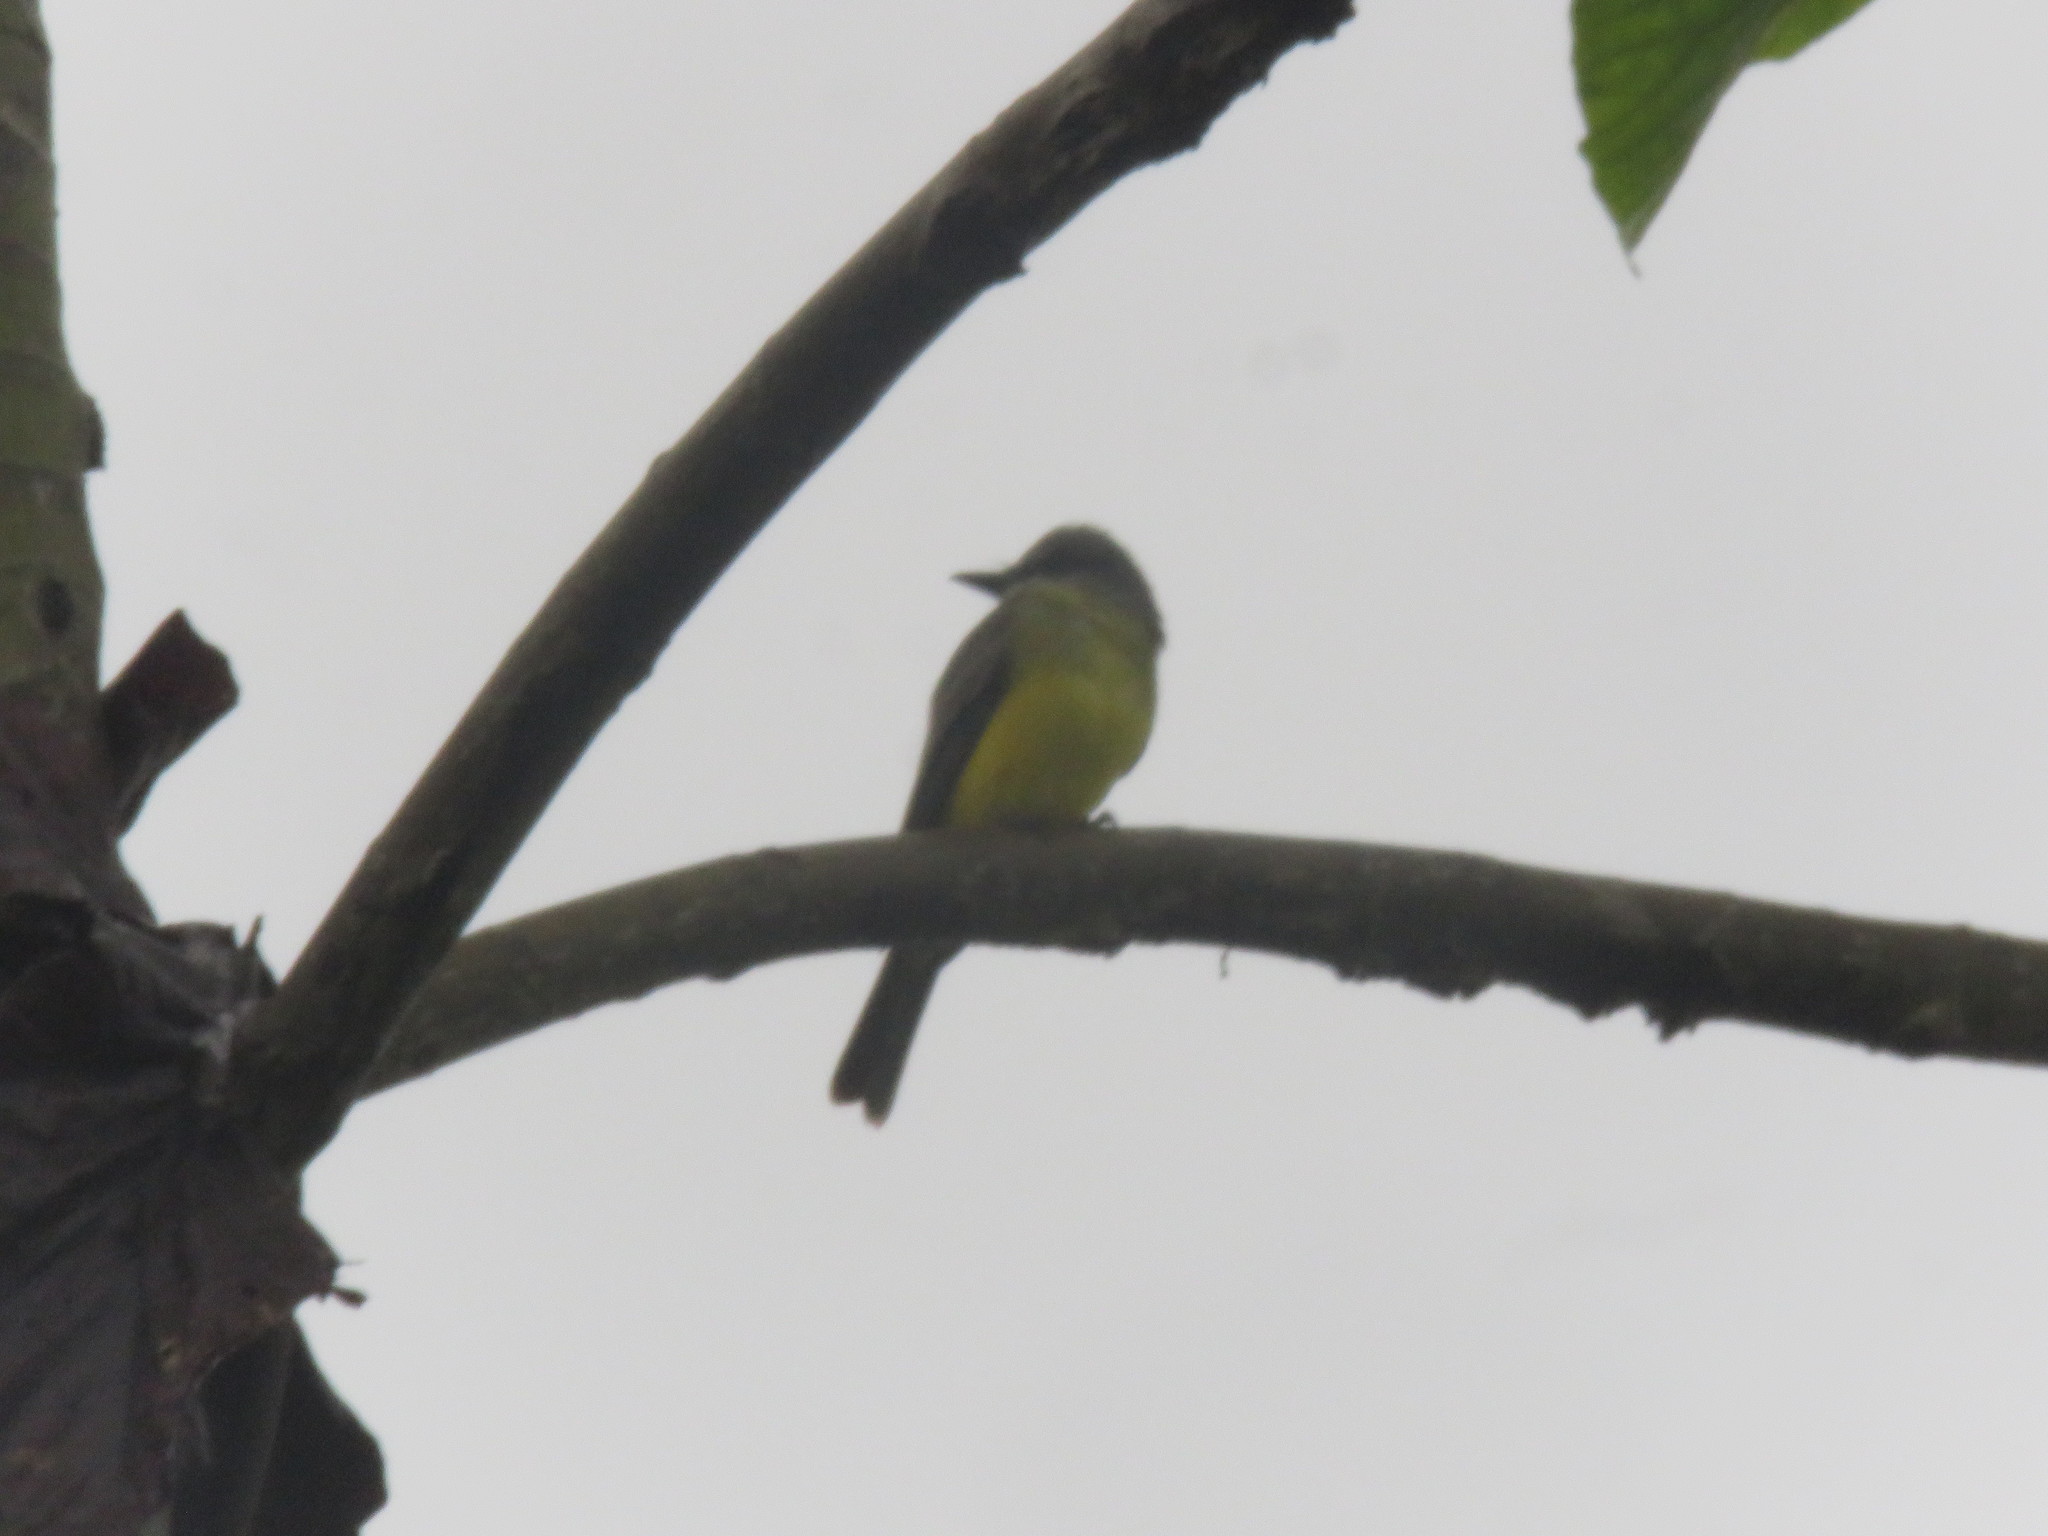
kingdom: Animalia
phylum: Chordata
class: Aves
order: Passeriformes
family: Tyrannidae
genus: Tyrannus
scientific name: Tyrannus melancholicus
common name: Tropical kingbird
